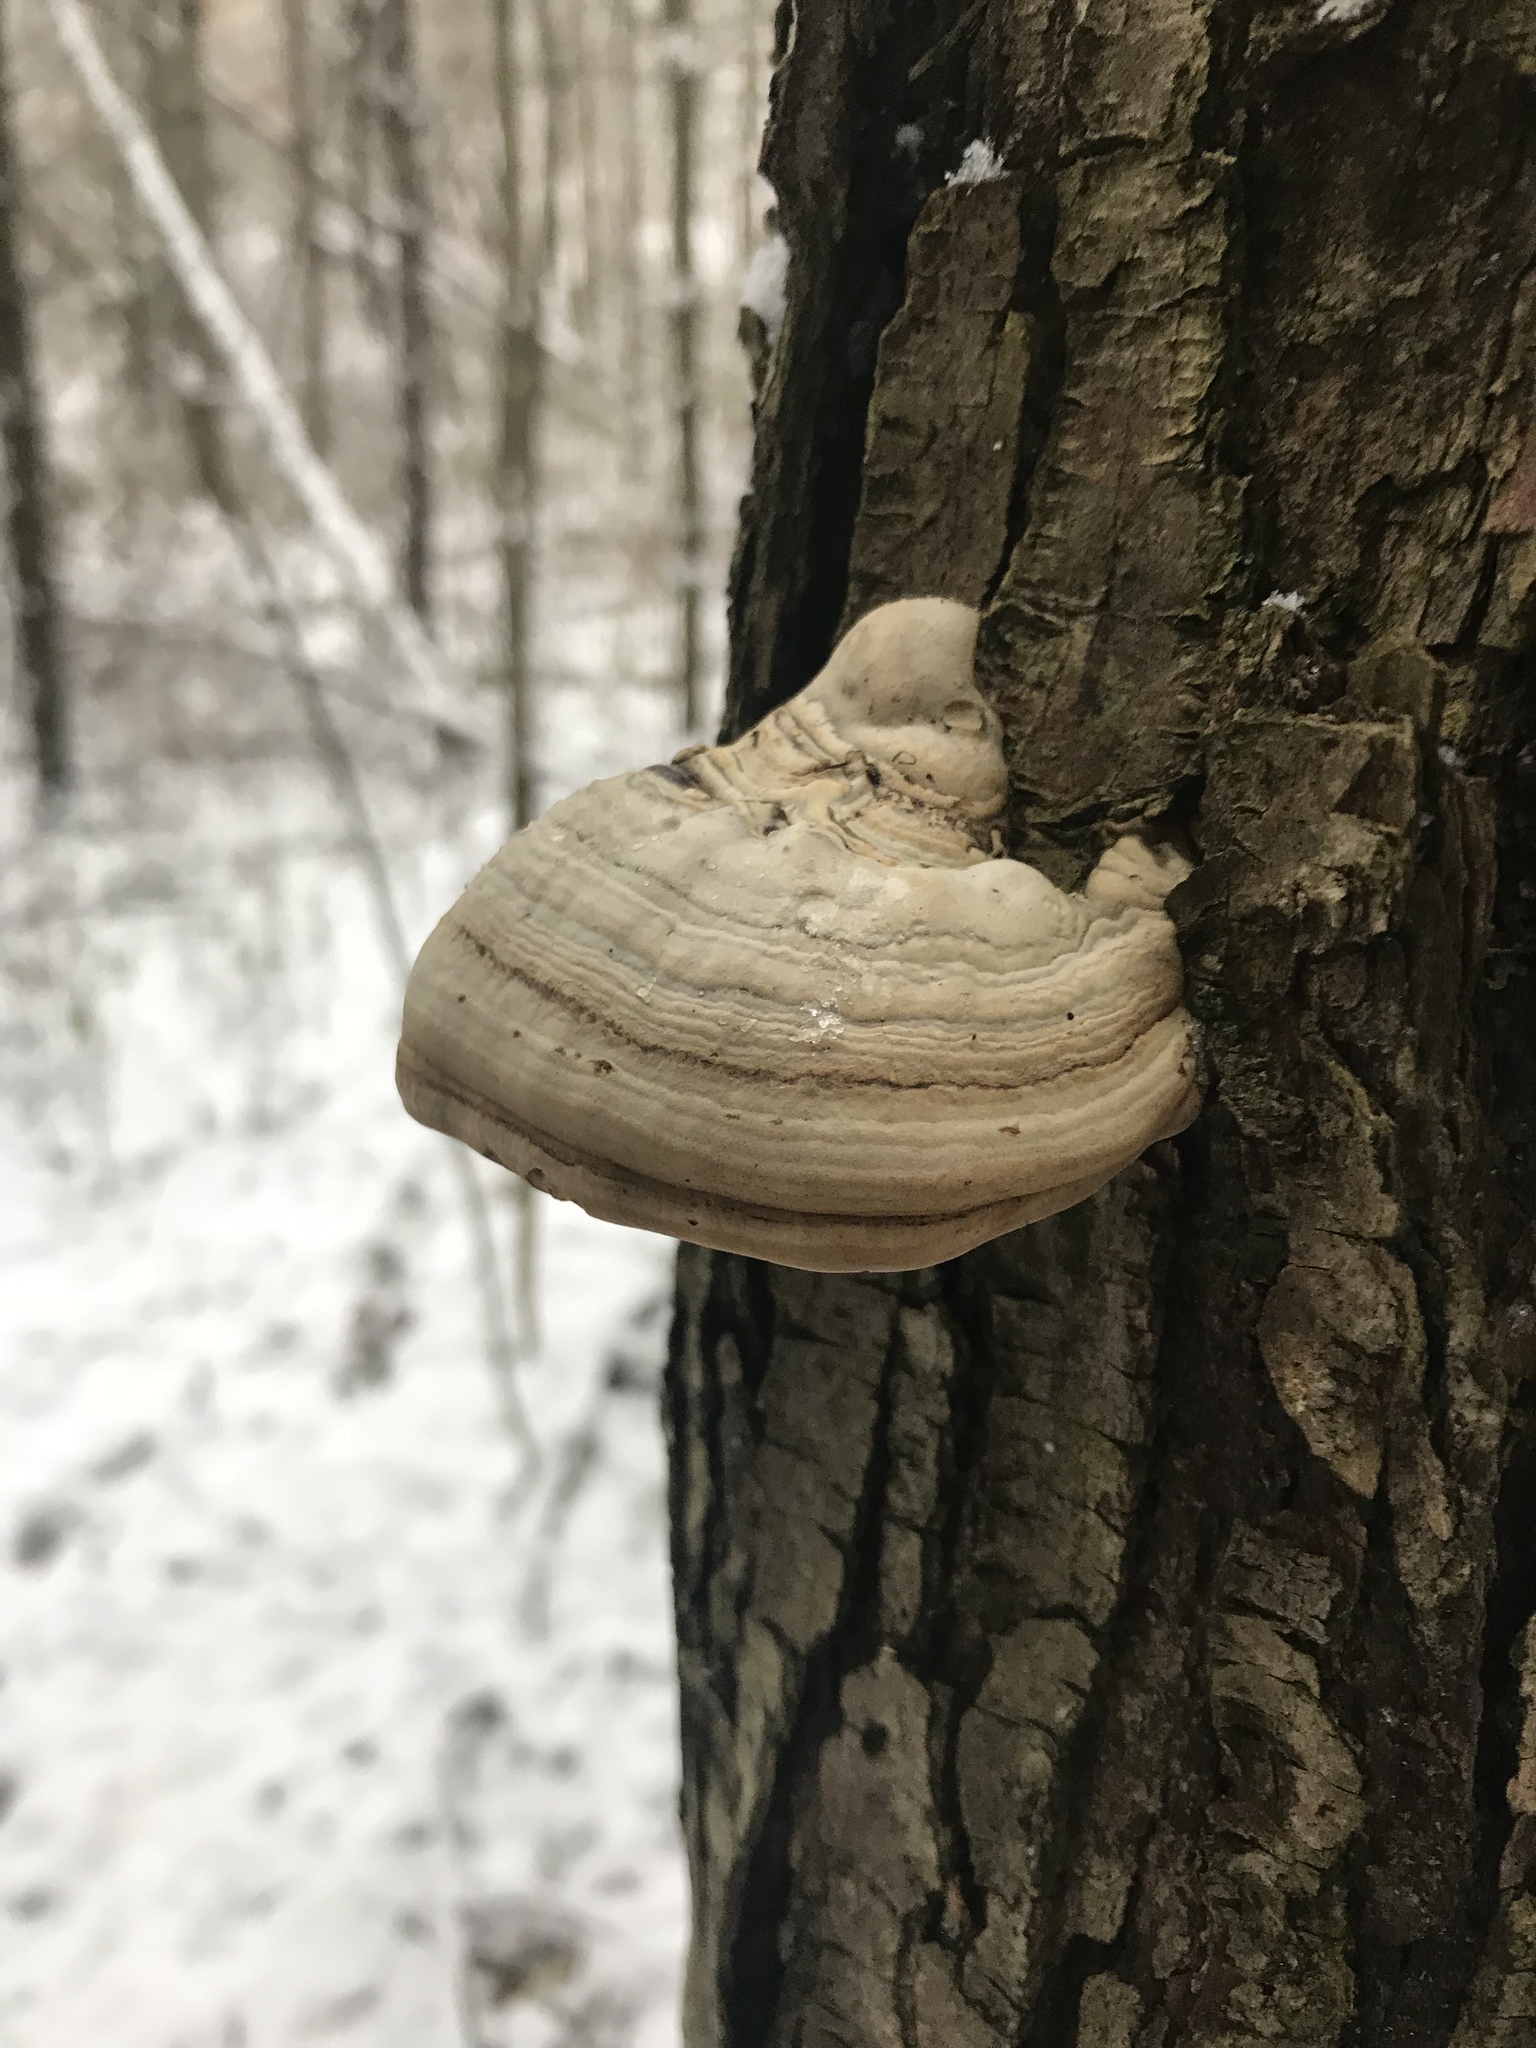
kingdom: Fungi
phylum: Basidiomycota
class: Agaricomycetes
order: Polyporales
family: Polyporaceae
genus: Fomes
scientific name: Fomes fomentarius
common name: Hoof fungus
